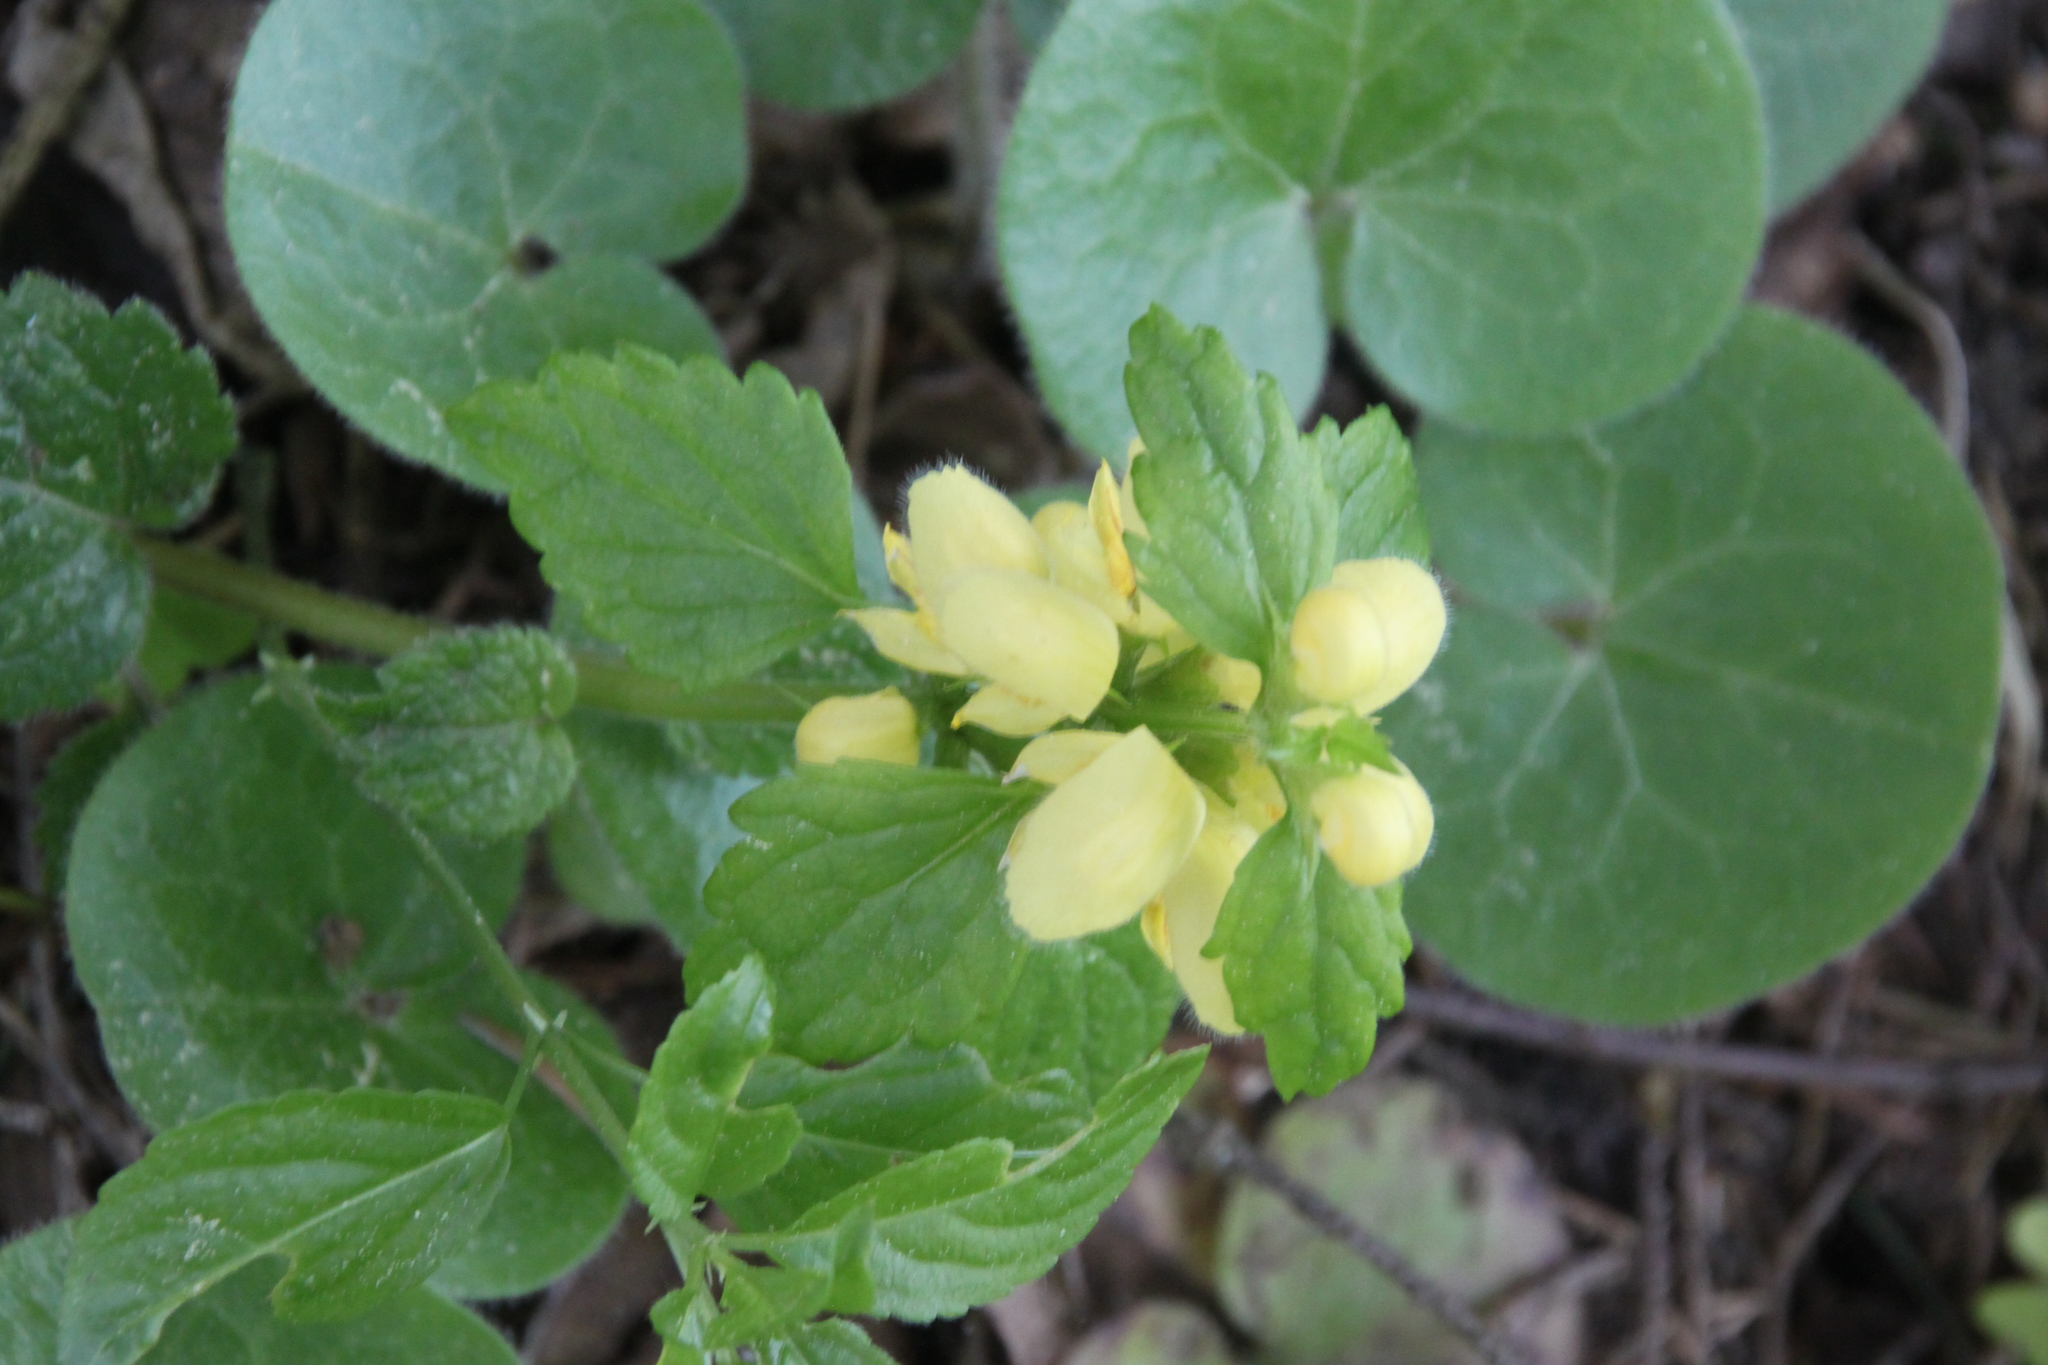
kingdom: Plantae
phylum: Tracheophyta
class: Magnoliopsida
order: Lamiales
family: Lamiaceae
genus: Lamium
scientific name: Lamium galeobdolon
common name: Yellow archangel
